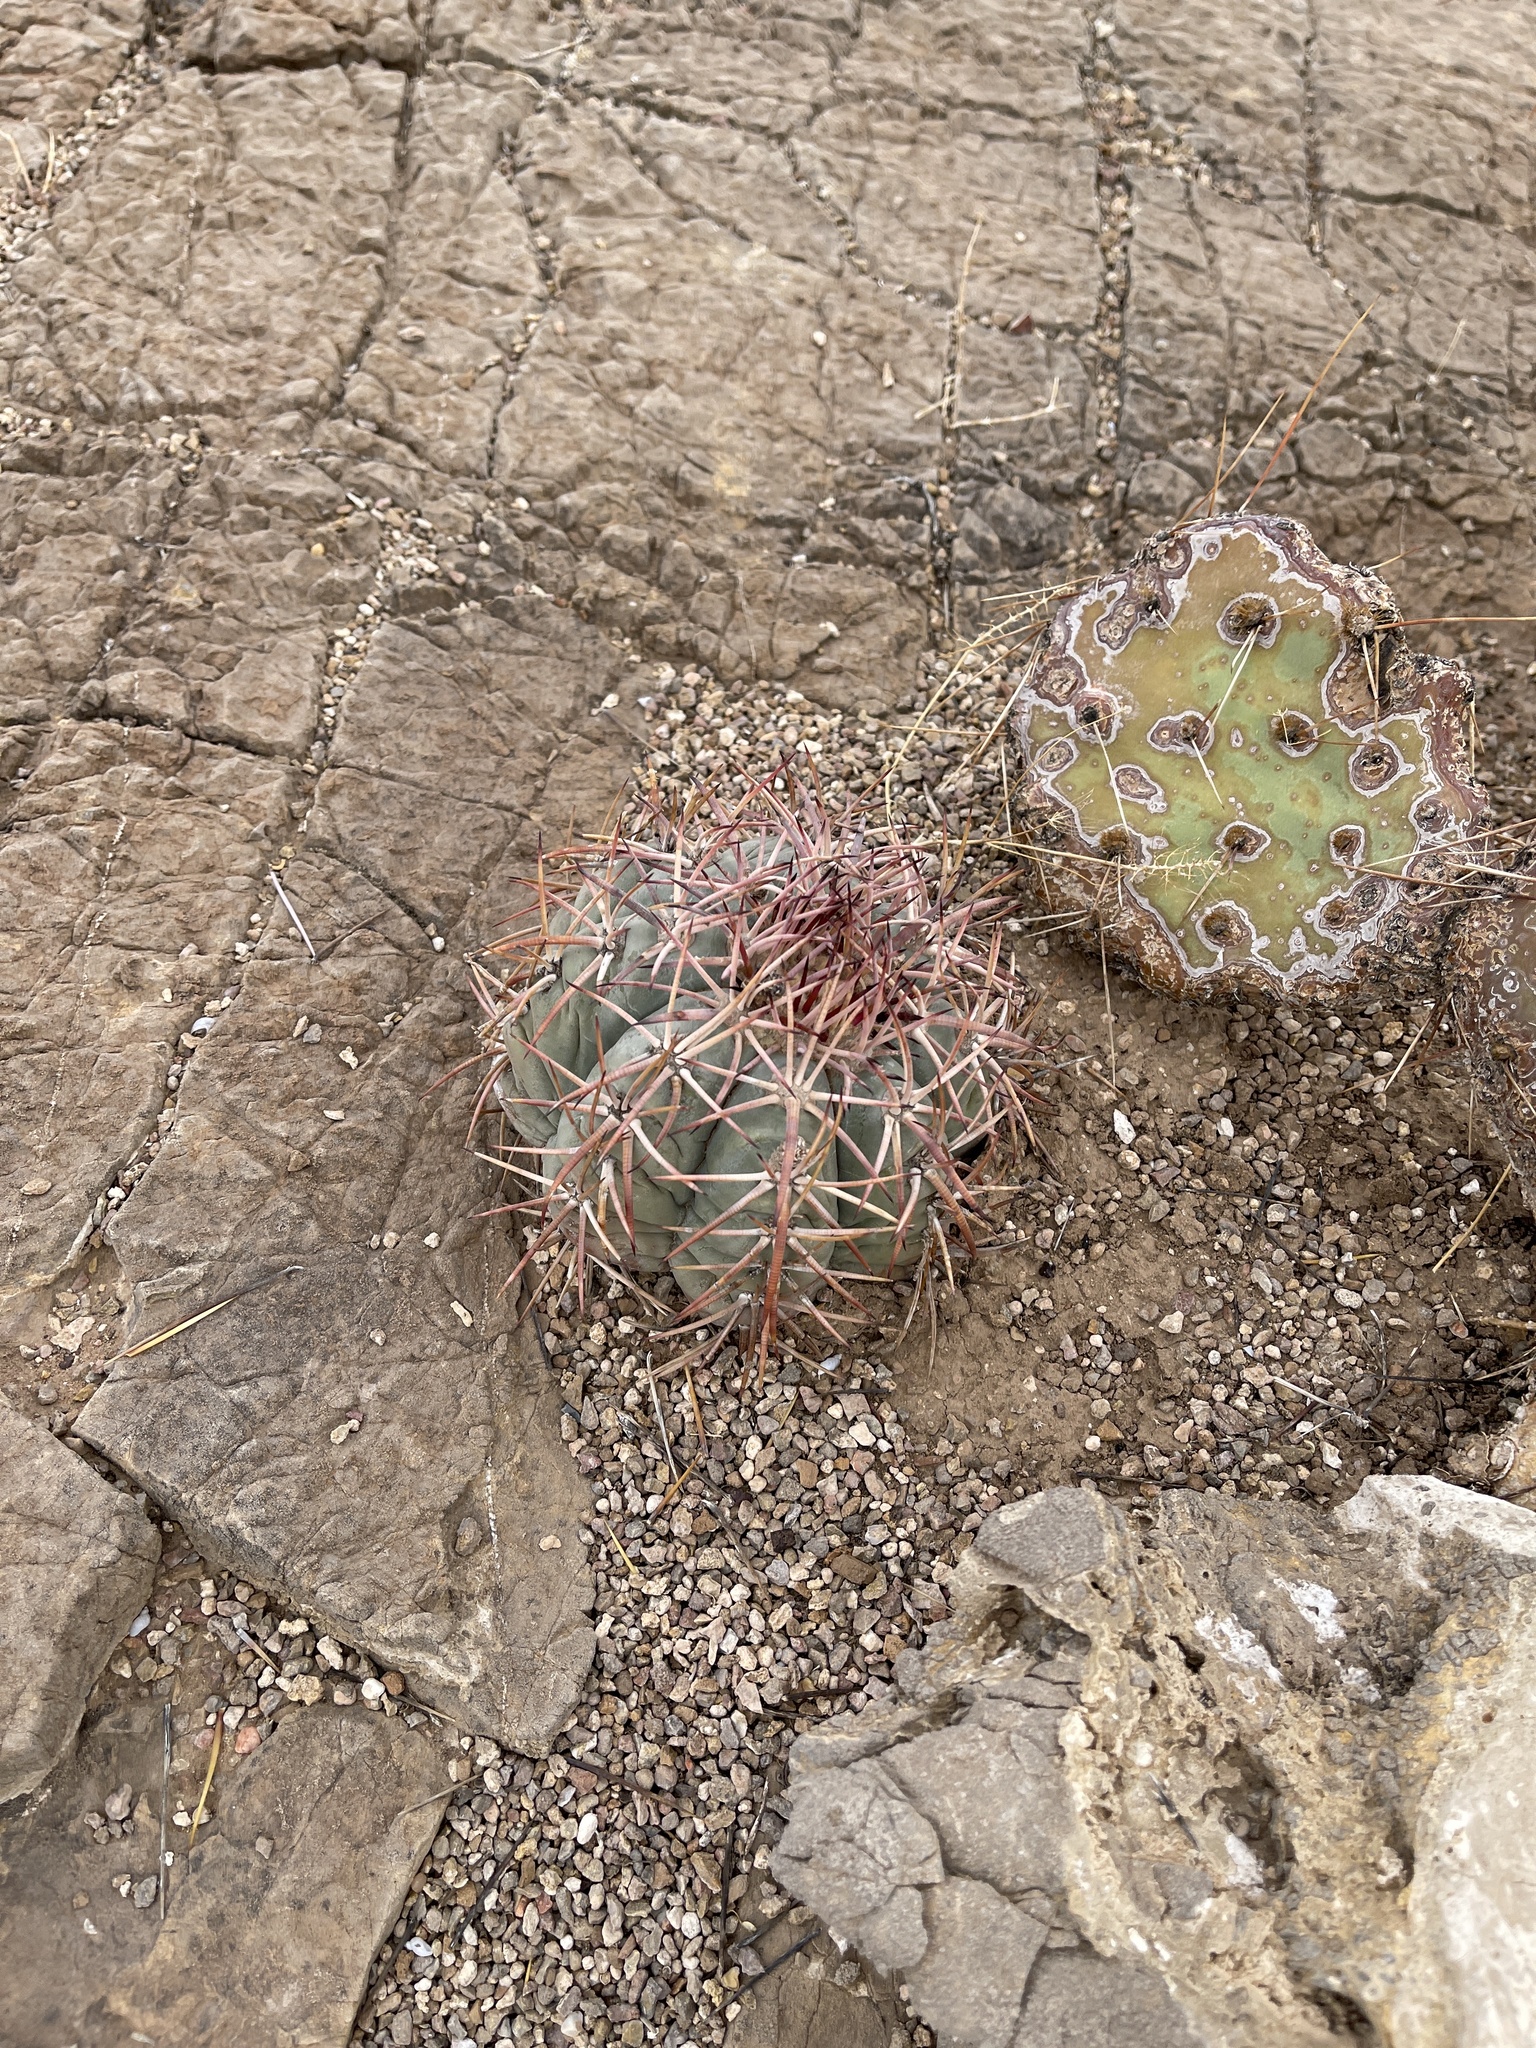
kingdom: Plantae
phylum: Tracheophyta
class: Magnoliopsida
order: Caryophyllales
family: Cactaceae
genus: Echinocactus
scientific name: Echinocactus horizonthalonius
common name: Devilshead
